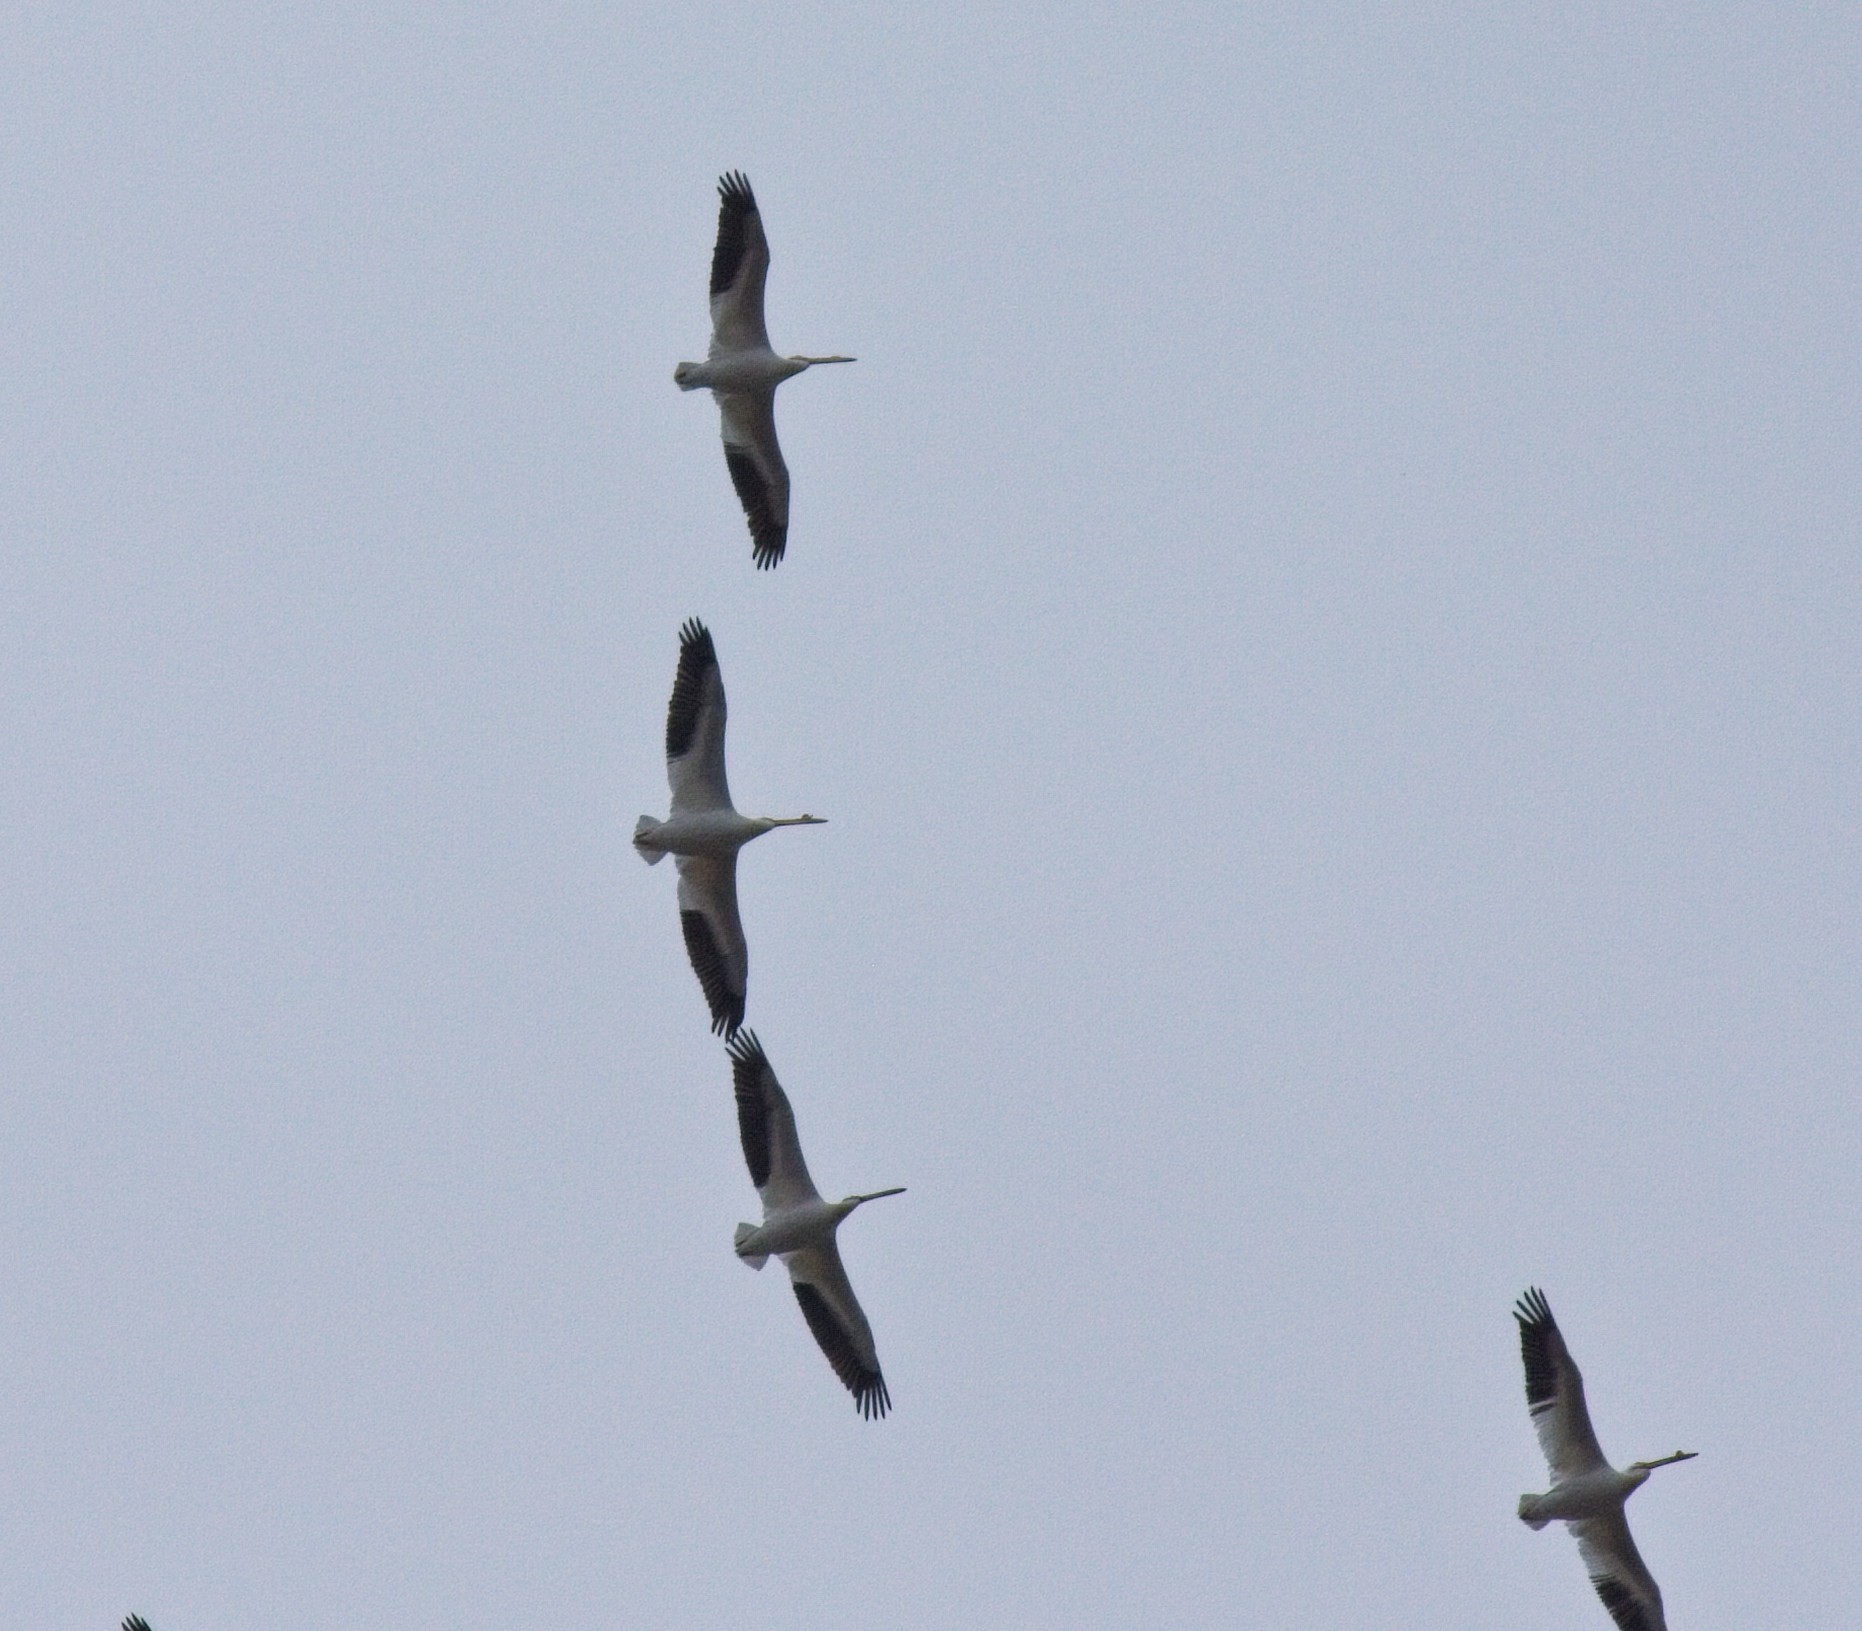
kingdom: Animalia
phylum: Chordata
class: Aves
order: Pelecaniformes
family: Pelecanidae
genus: Pelecanus
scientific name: Pelecanus erythrorhynchos
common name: American white pelican
